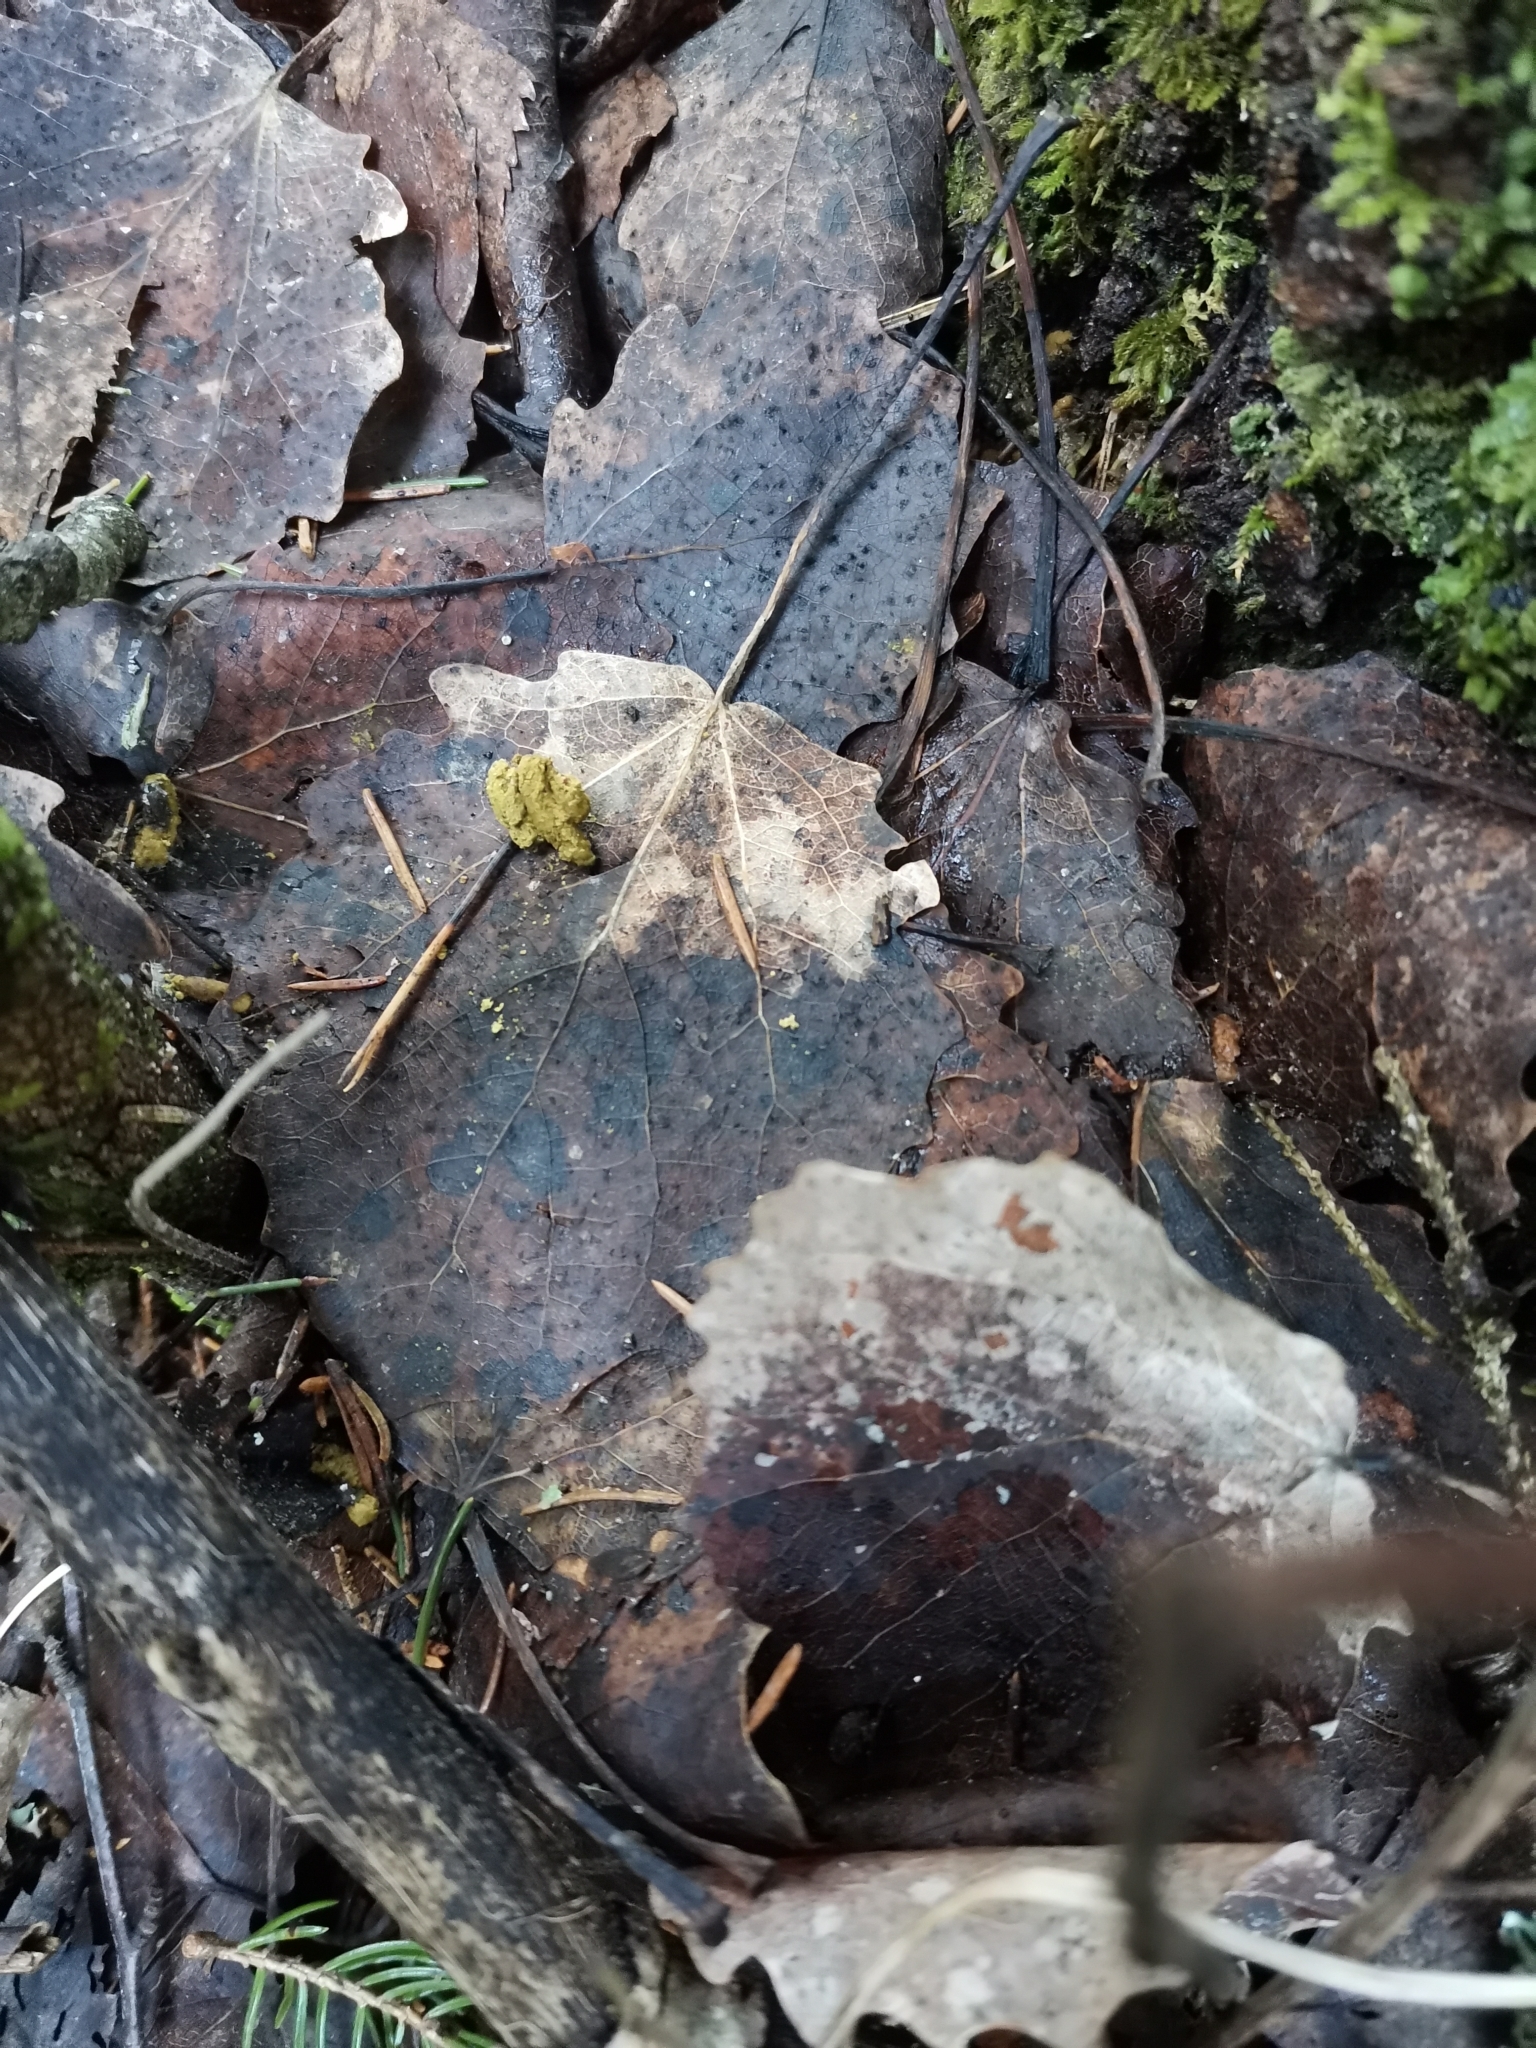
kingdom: Animalia
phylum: Chordata
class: Mammalia
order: Rodentia
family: Sciuridae
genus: Pteromys
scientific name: Pteromys volans
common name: Siberian flying squirrel
